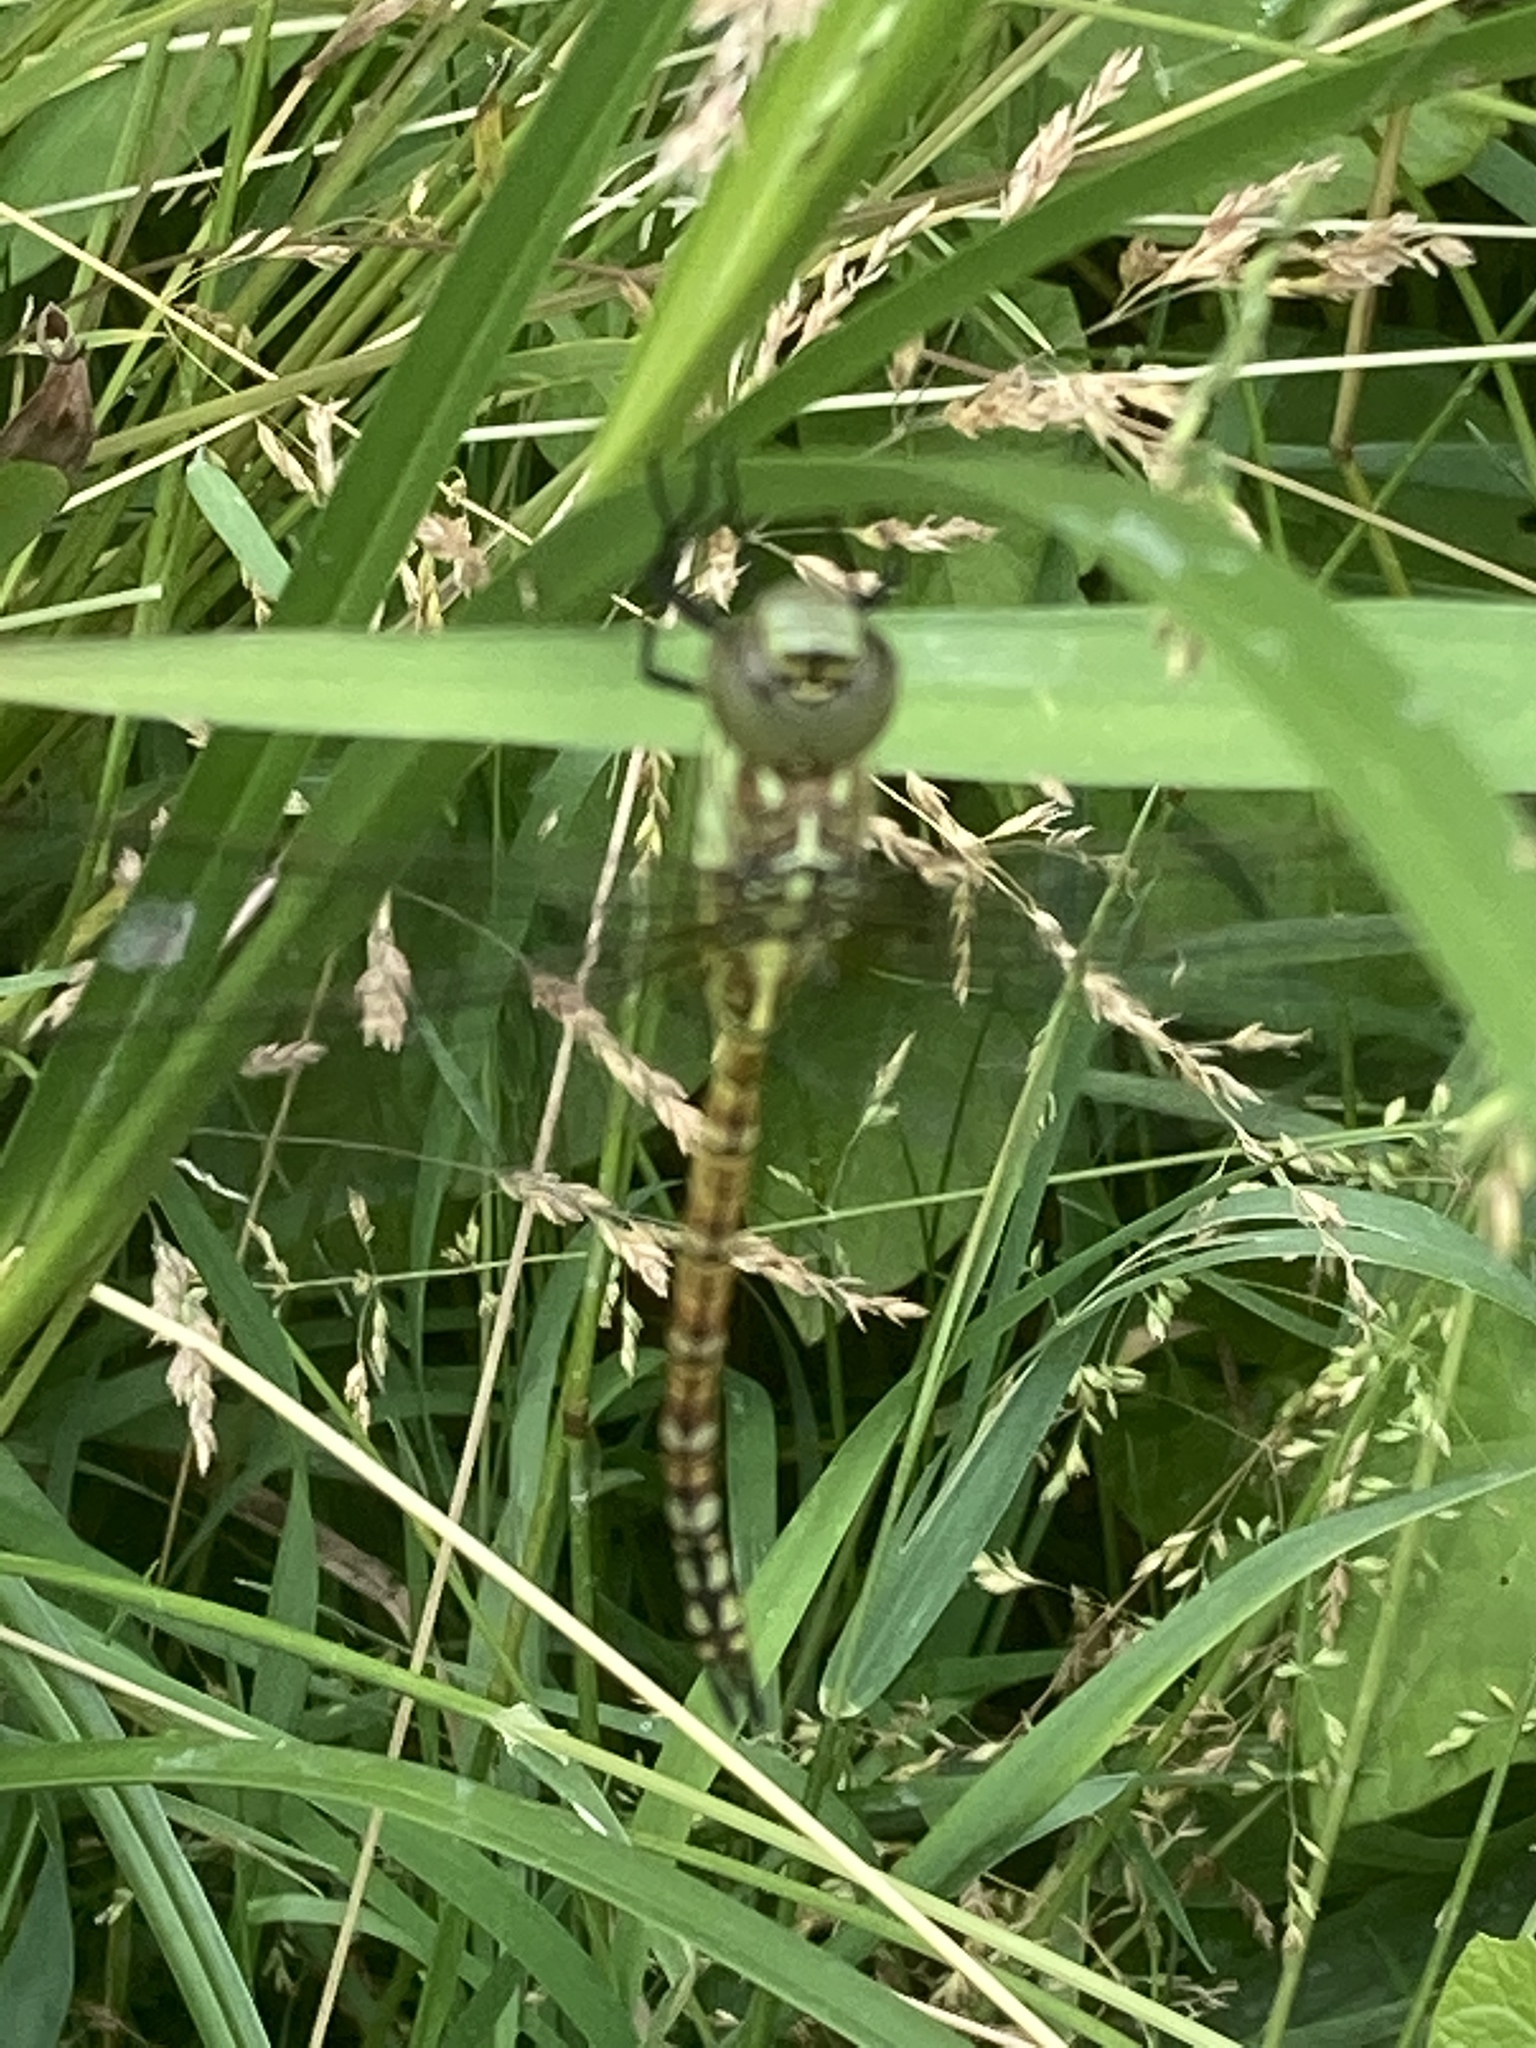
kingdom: Animalia
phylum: Arthropoda
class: Insecta
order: Odonata
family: Aeshnidae
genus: Aeshna
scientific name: Aeshna affinis
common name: Southern migrant hawker
